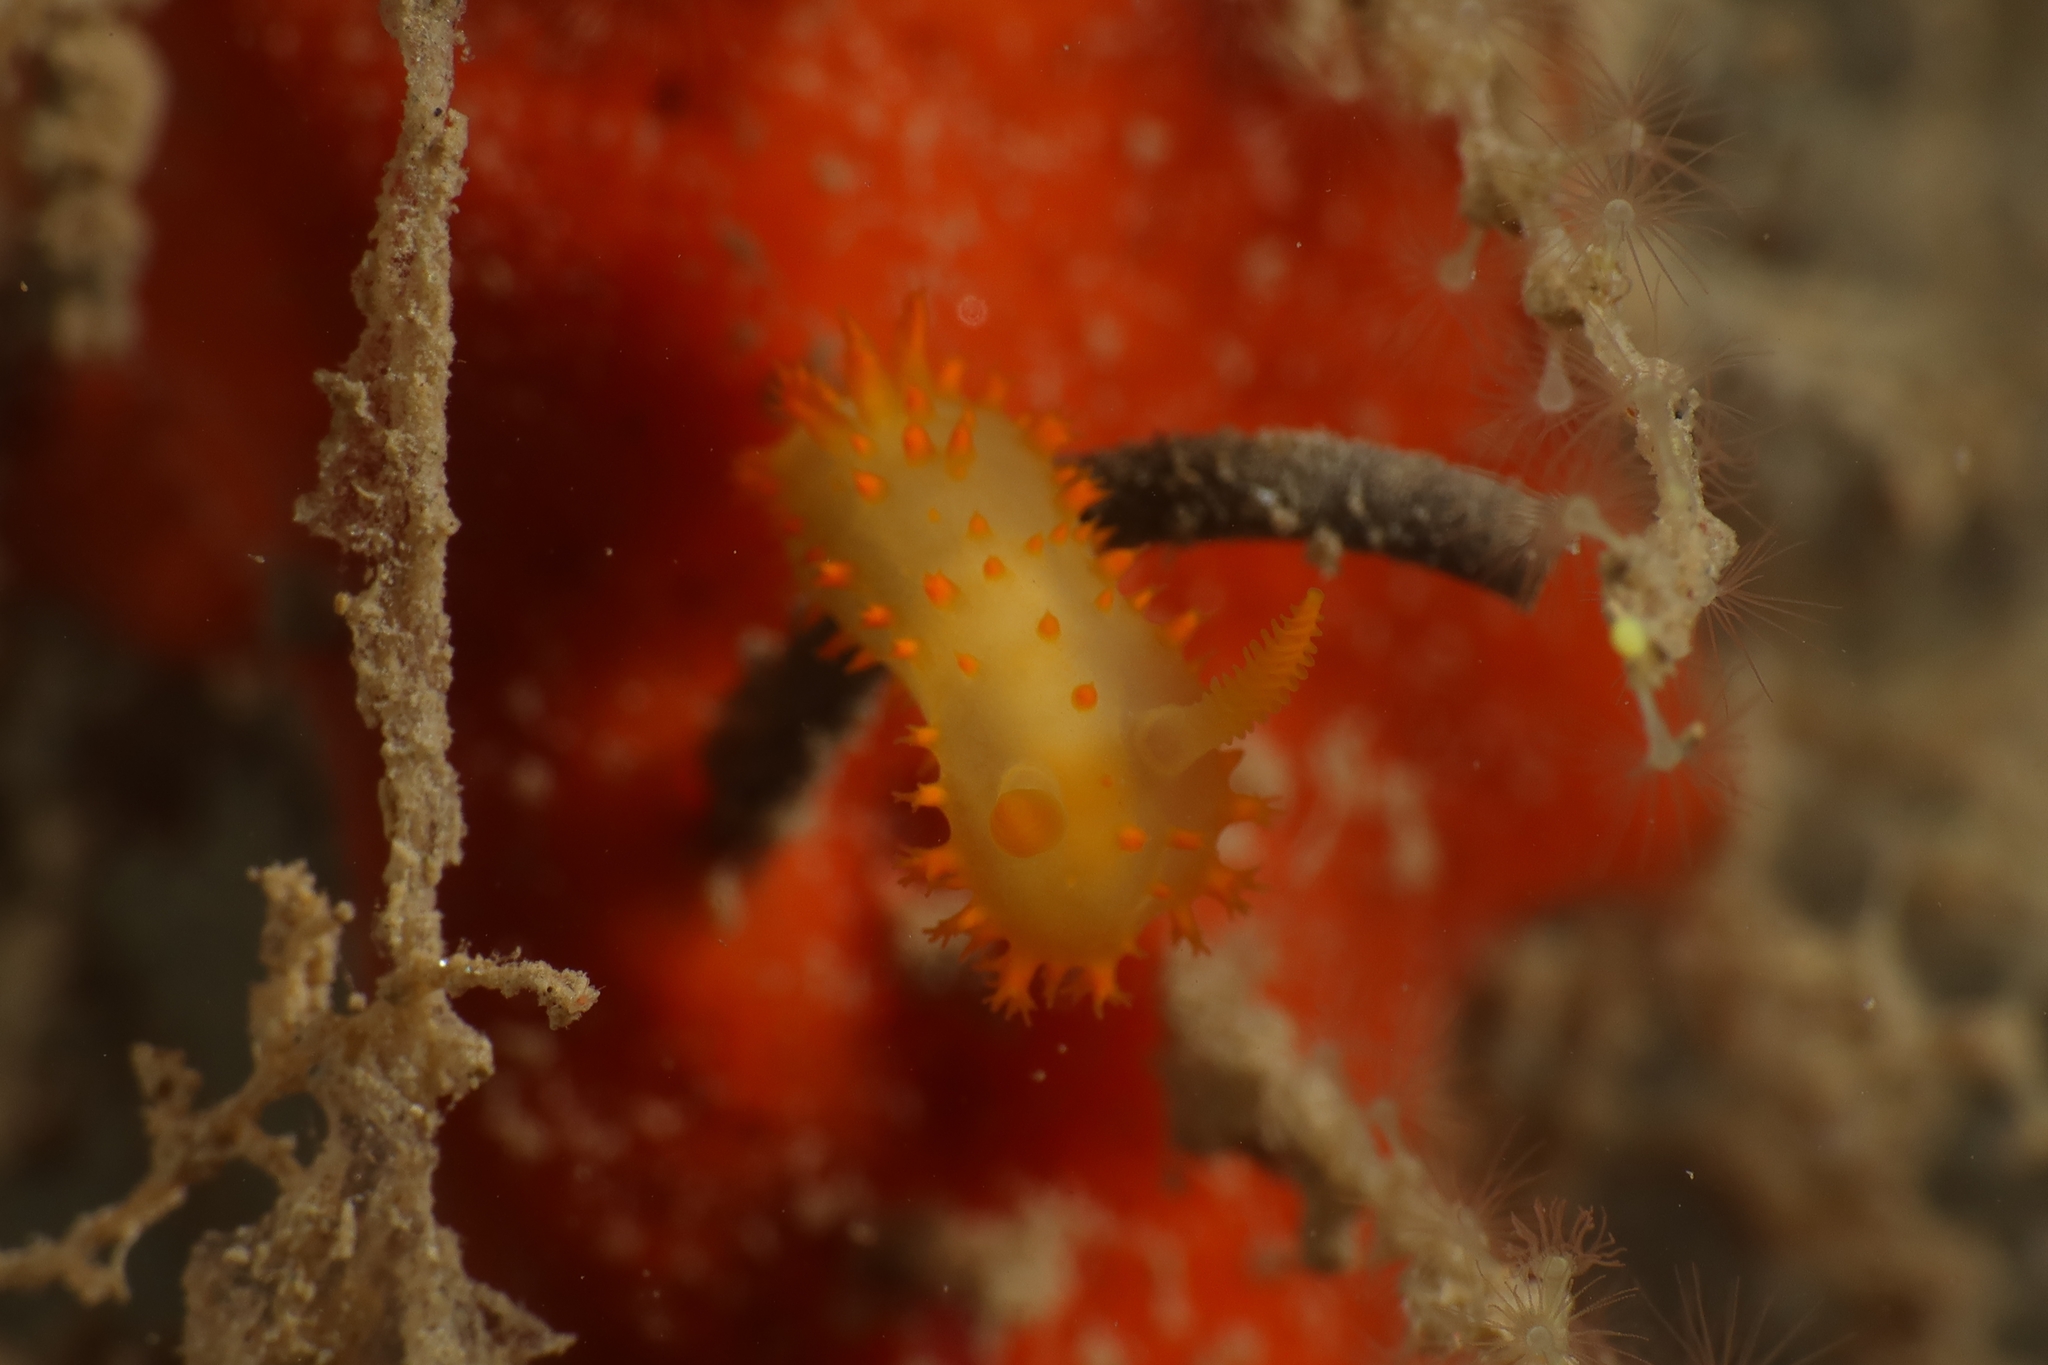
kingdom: Animalia
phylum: Mollusca
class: Gastropoda
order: Nudibranchia
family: Polyceridae
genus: Crimora
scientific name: Crimora papillata
